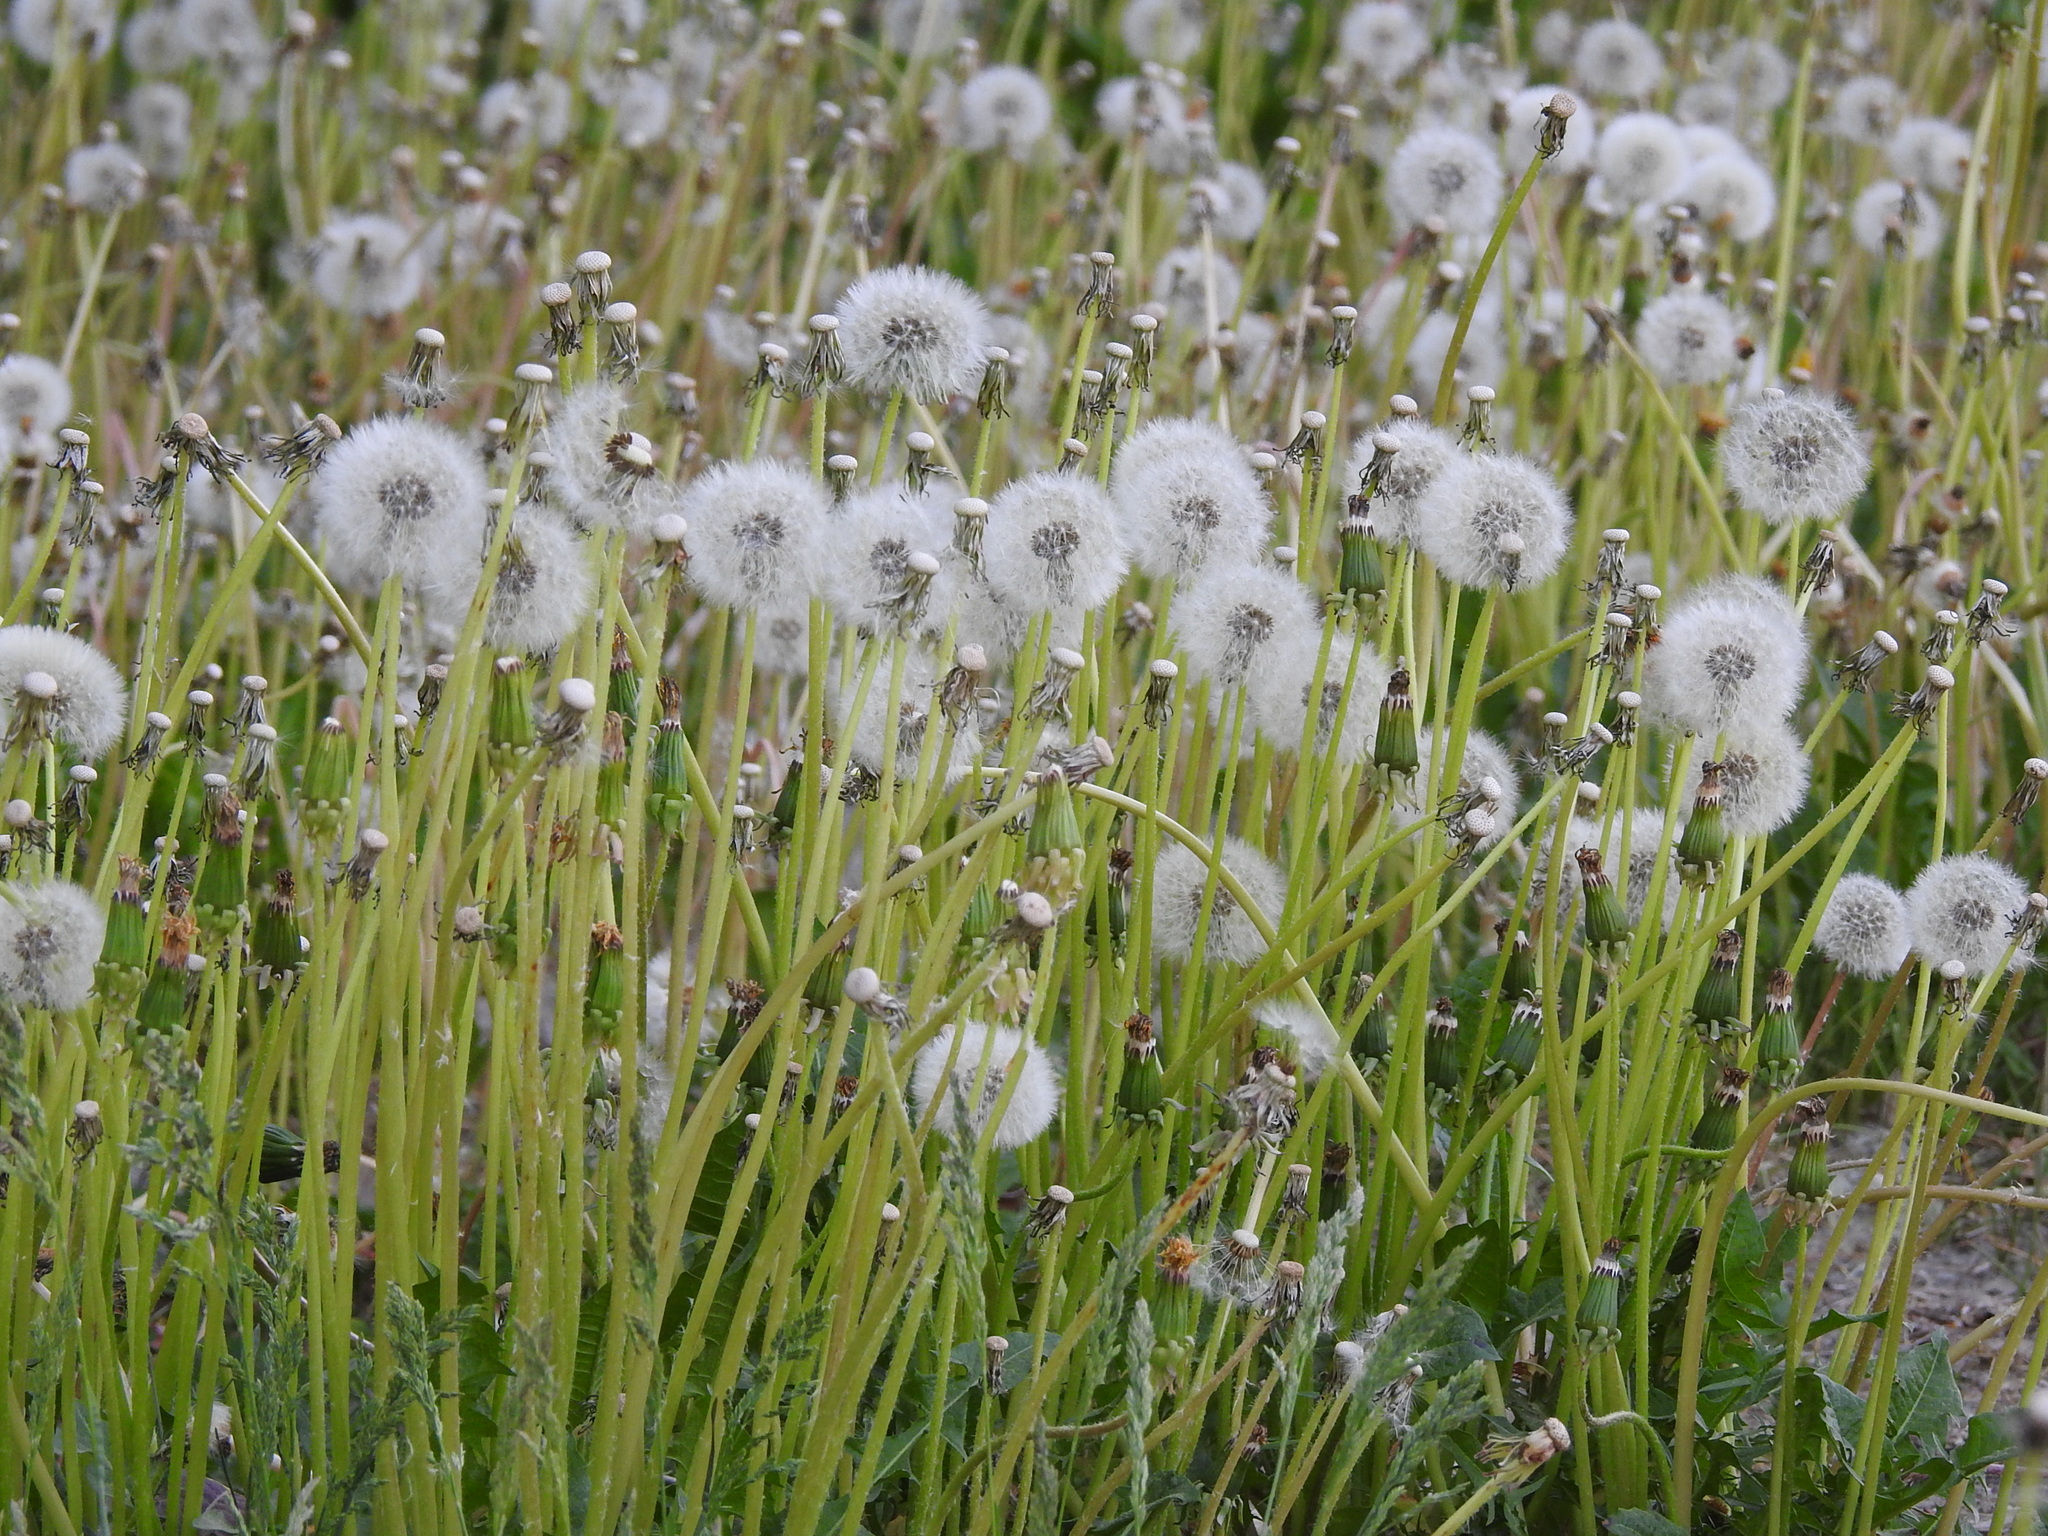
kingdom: Plantae
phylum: Tracheophyta
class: Magnoliopsida
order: Asterales
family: Asteraceae
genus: Taraxacum
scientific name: Taraxacum officinale
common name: Common dandelion
